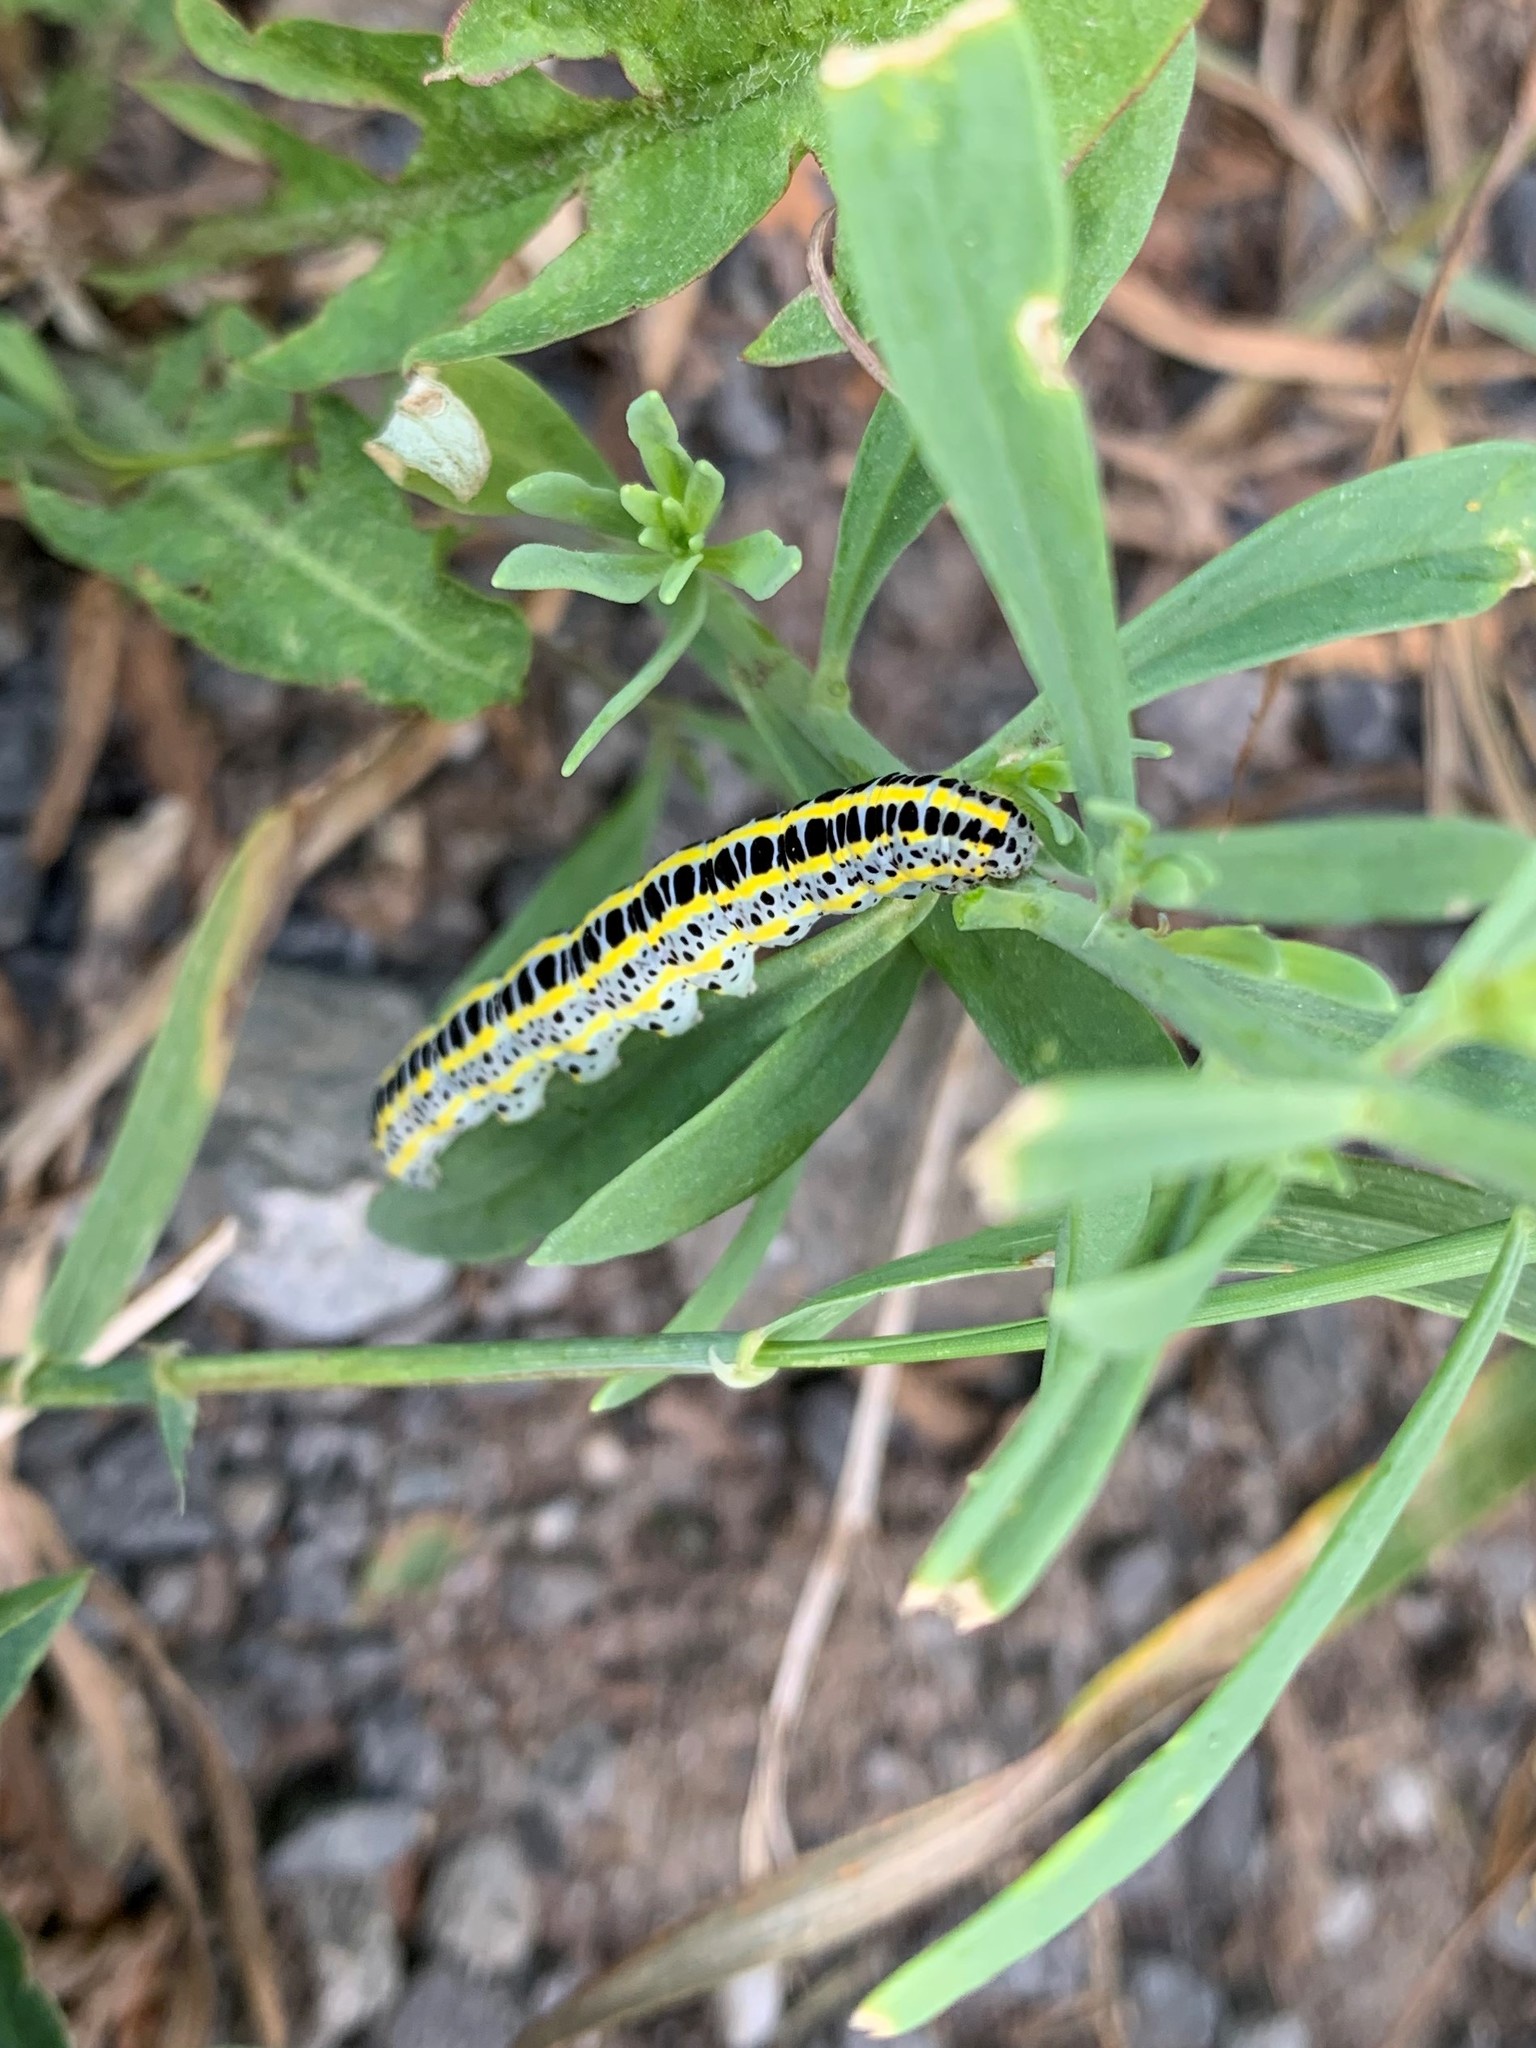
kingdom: Animalia
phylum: Arthropoda
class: Insecta
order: Lepidoptera
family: Noctuidae
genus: Calophasia
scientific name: Calophasia lunula
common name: Toadflax brocade
